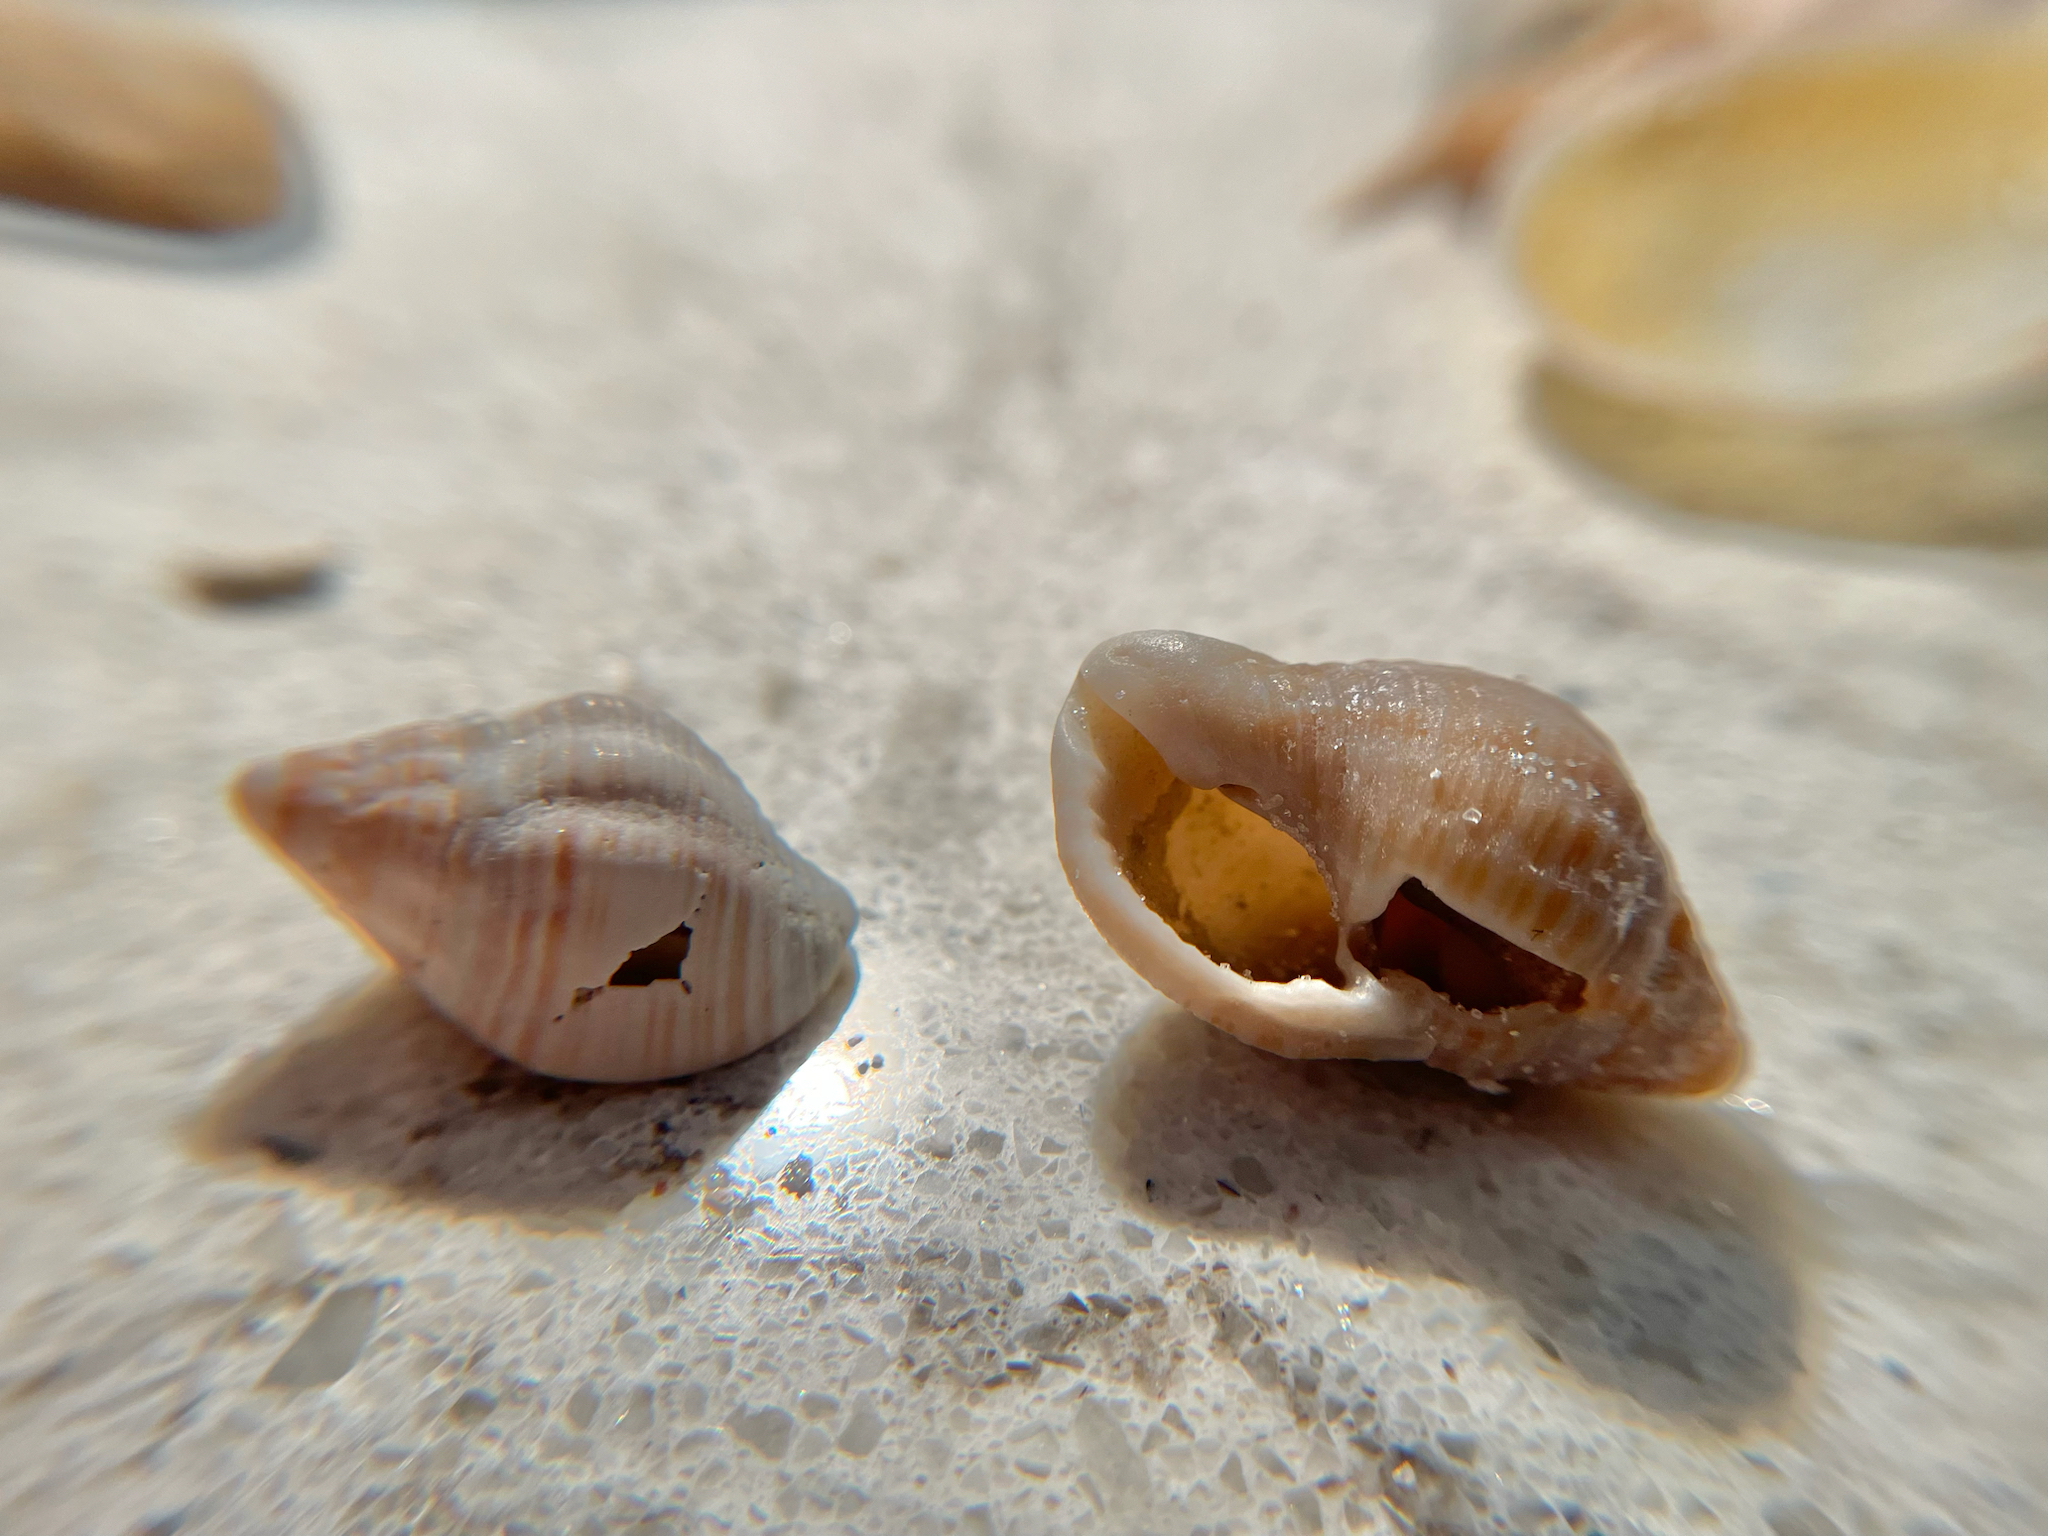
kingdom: Animalia
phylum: Mollusca
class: Gastropoda
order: Neogastropoda
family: Pisaniidae
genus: Gemophos
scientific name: Gemophos tinctus
